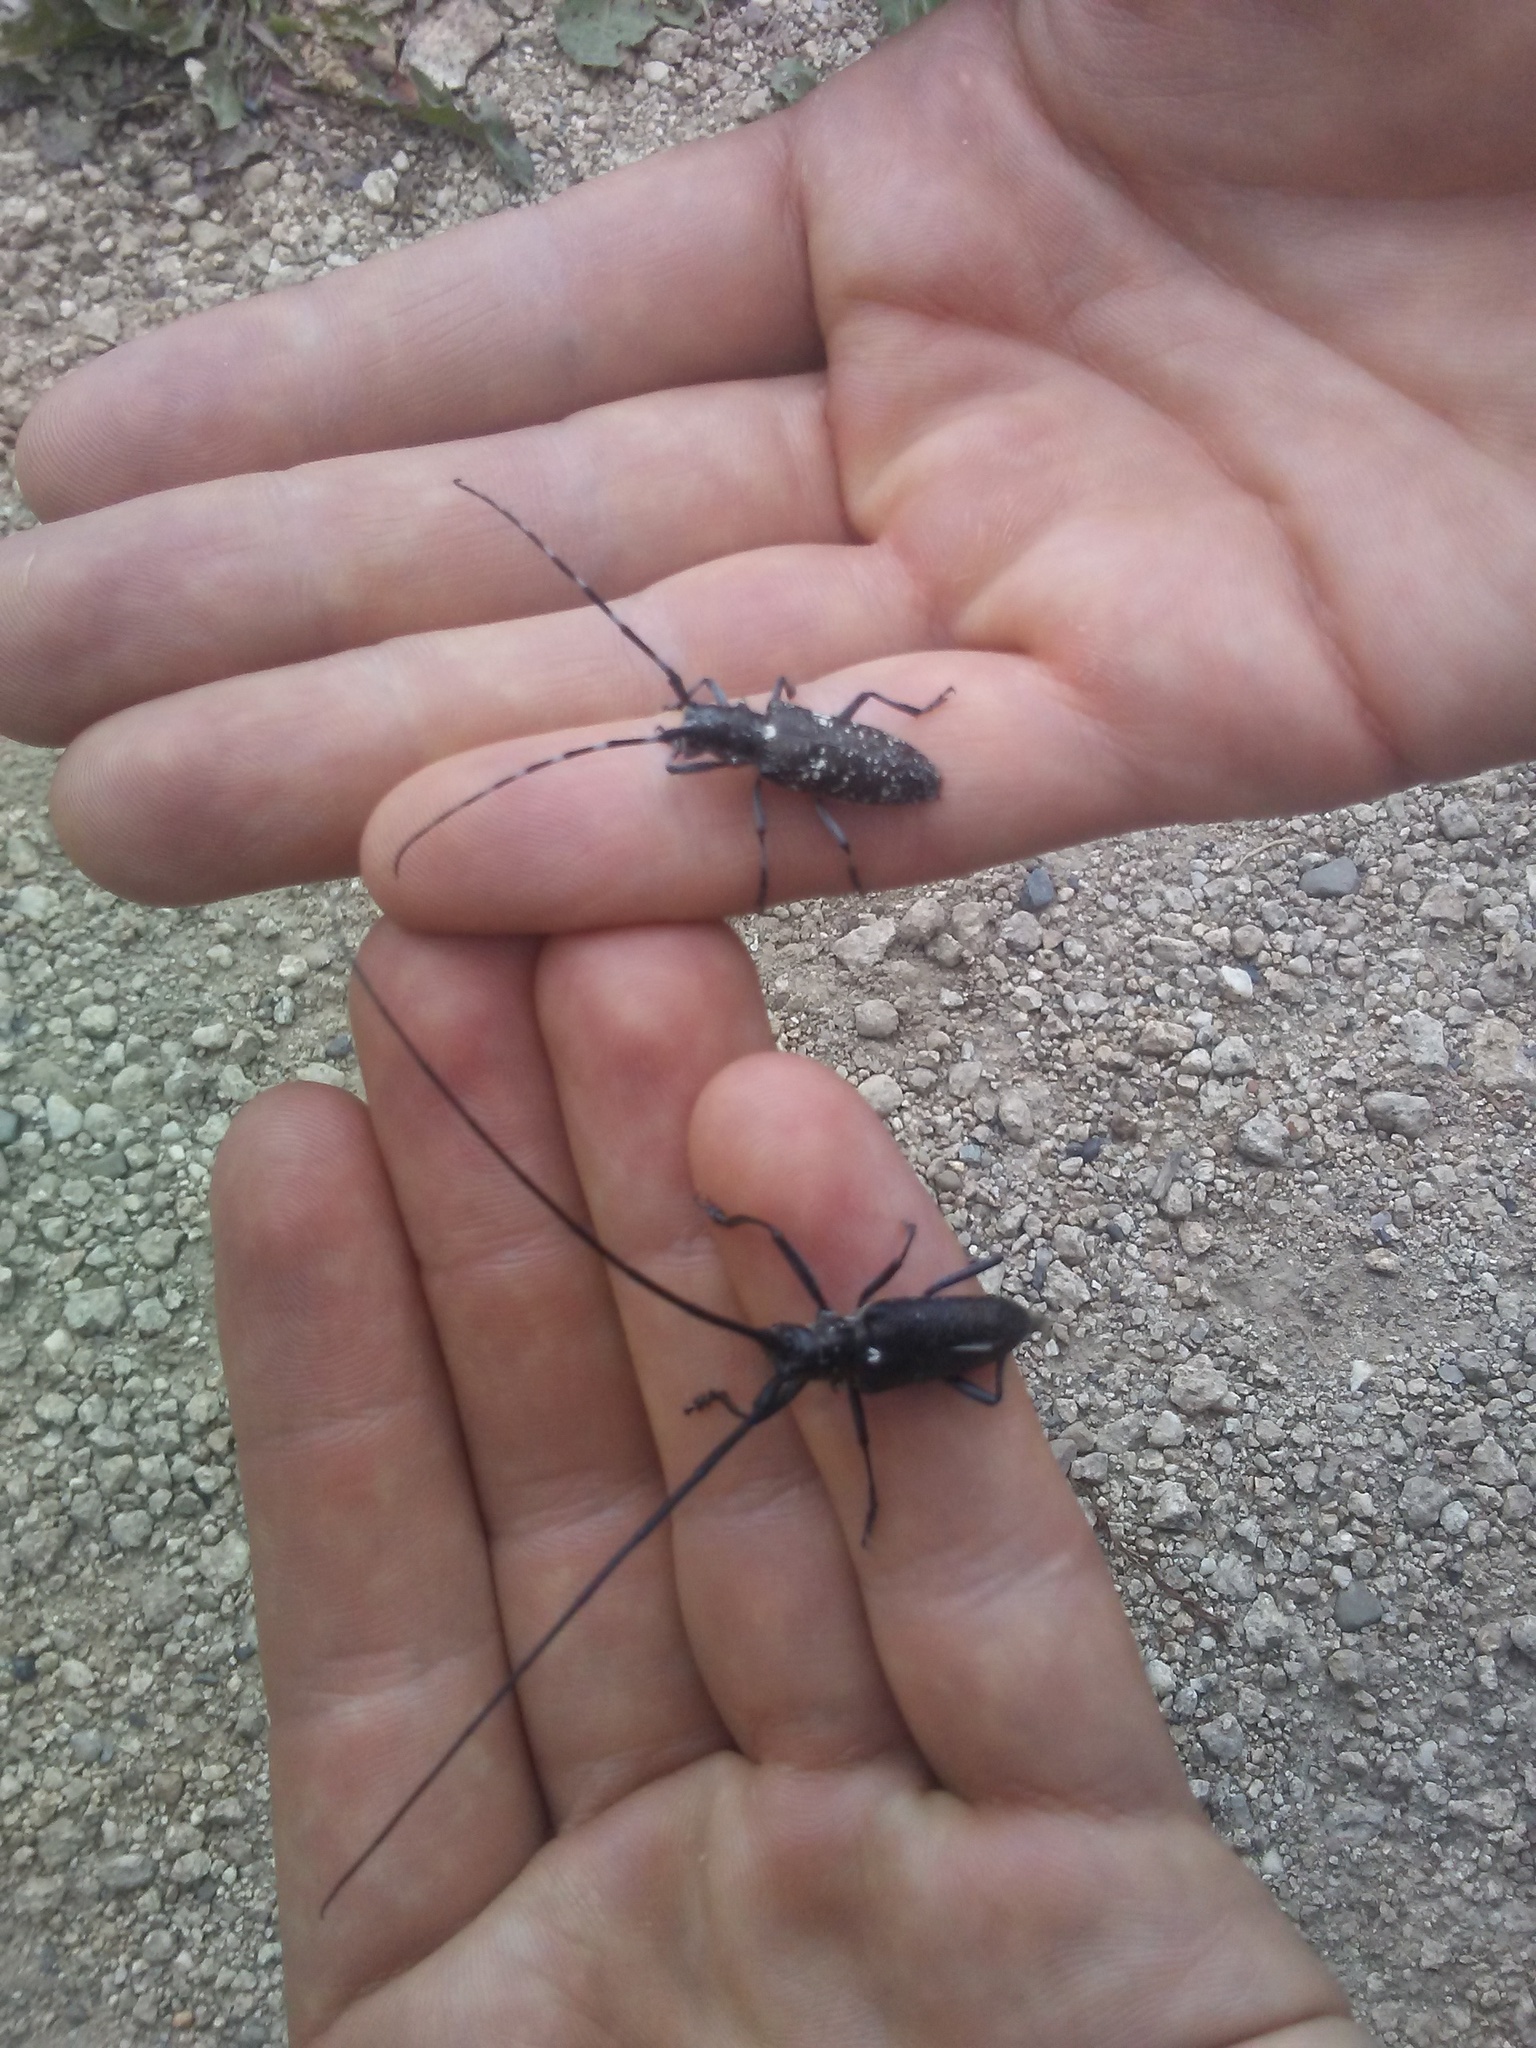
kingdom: Animalia
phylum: Arthropoda
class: Insecta
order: Coleoptera
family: Cerambycidae
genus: Monochamus
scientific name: Monochamus scutellatus
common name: White-spotted sawyer beetle
